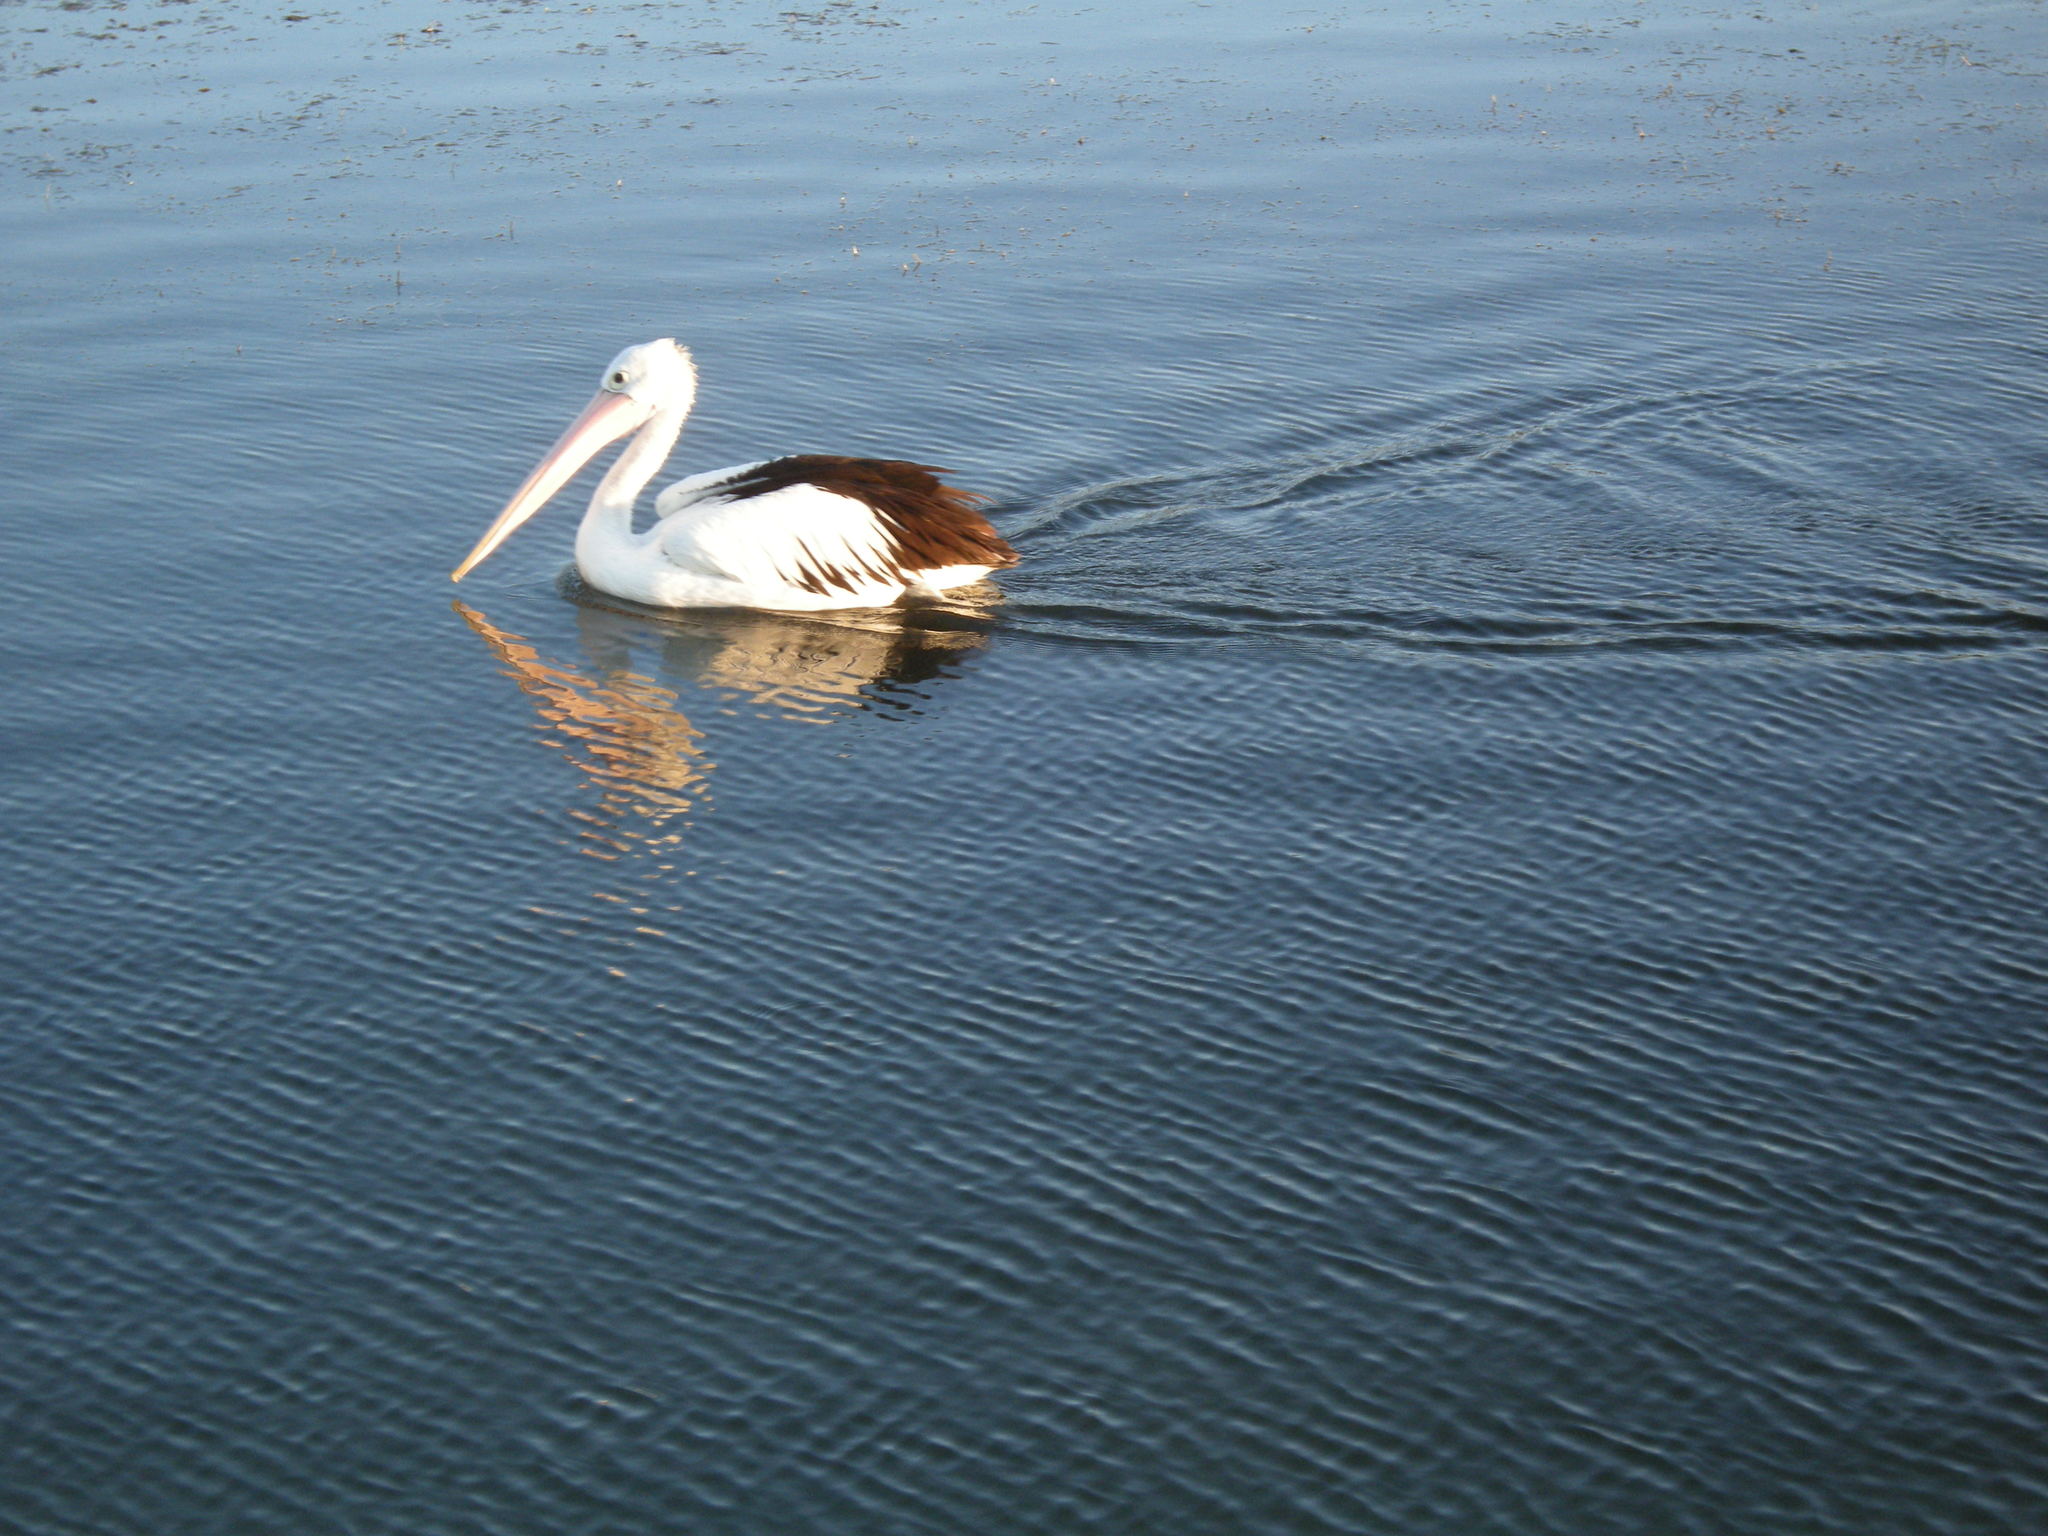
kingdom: Animalia
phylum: Chordata
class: Aves
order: Pelecaniformes
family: Pelecanidae
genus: Pelecanus
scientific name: Pelecanus conspicillatus
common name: Australian pelican
